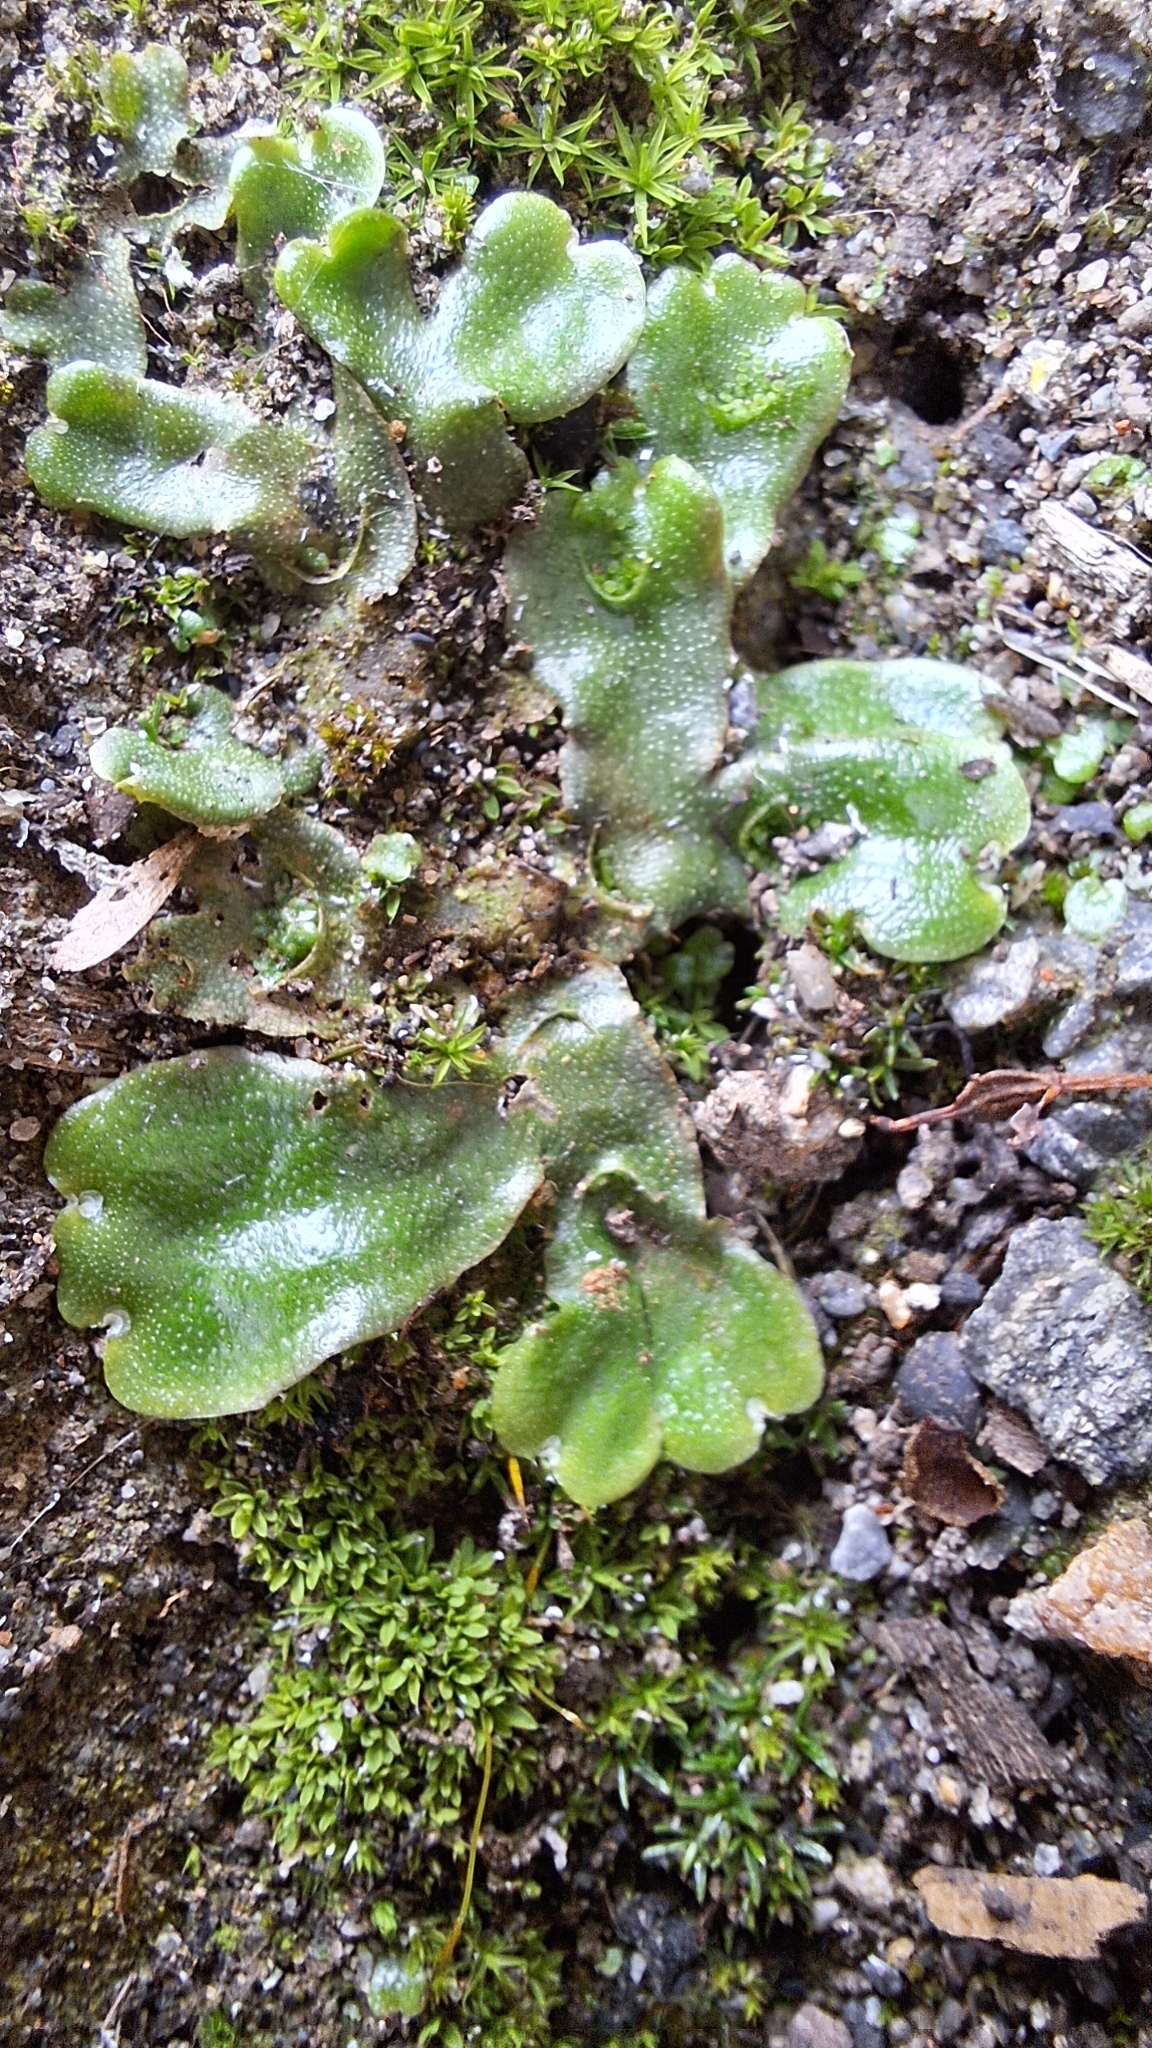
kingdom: Plantae
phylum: Marchantiophyta
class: Marchantiopsida
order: Lunulariales
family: Lunulariaceae
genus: Lunularia
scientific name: Lunularia cruciata
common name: Crescent-cup liverwort
